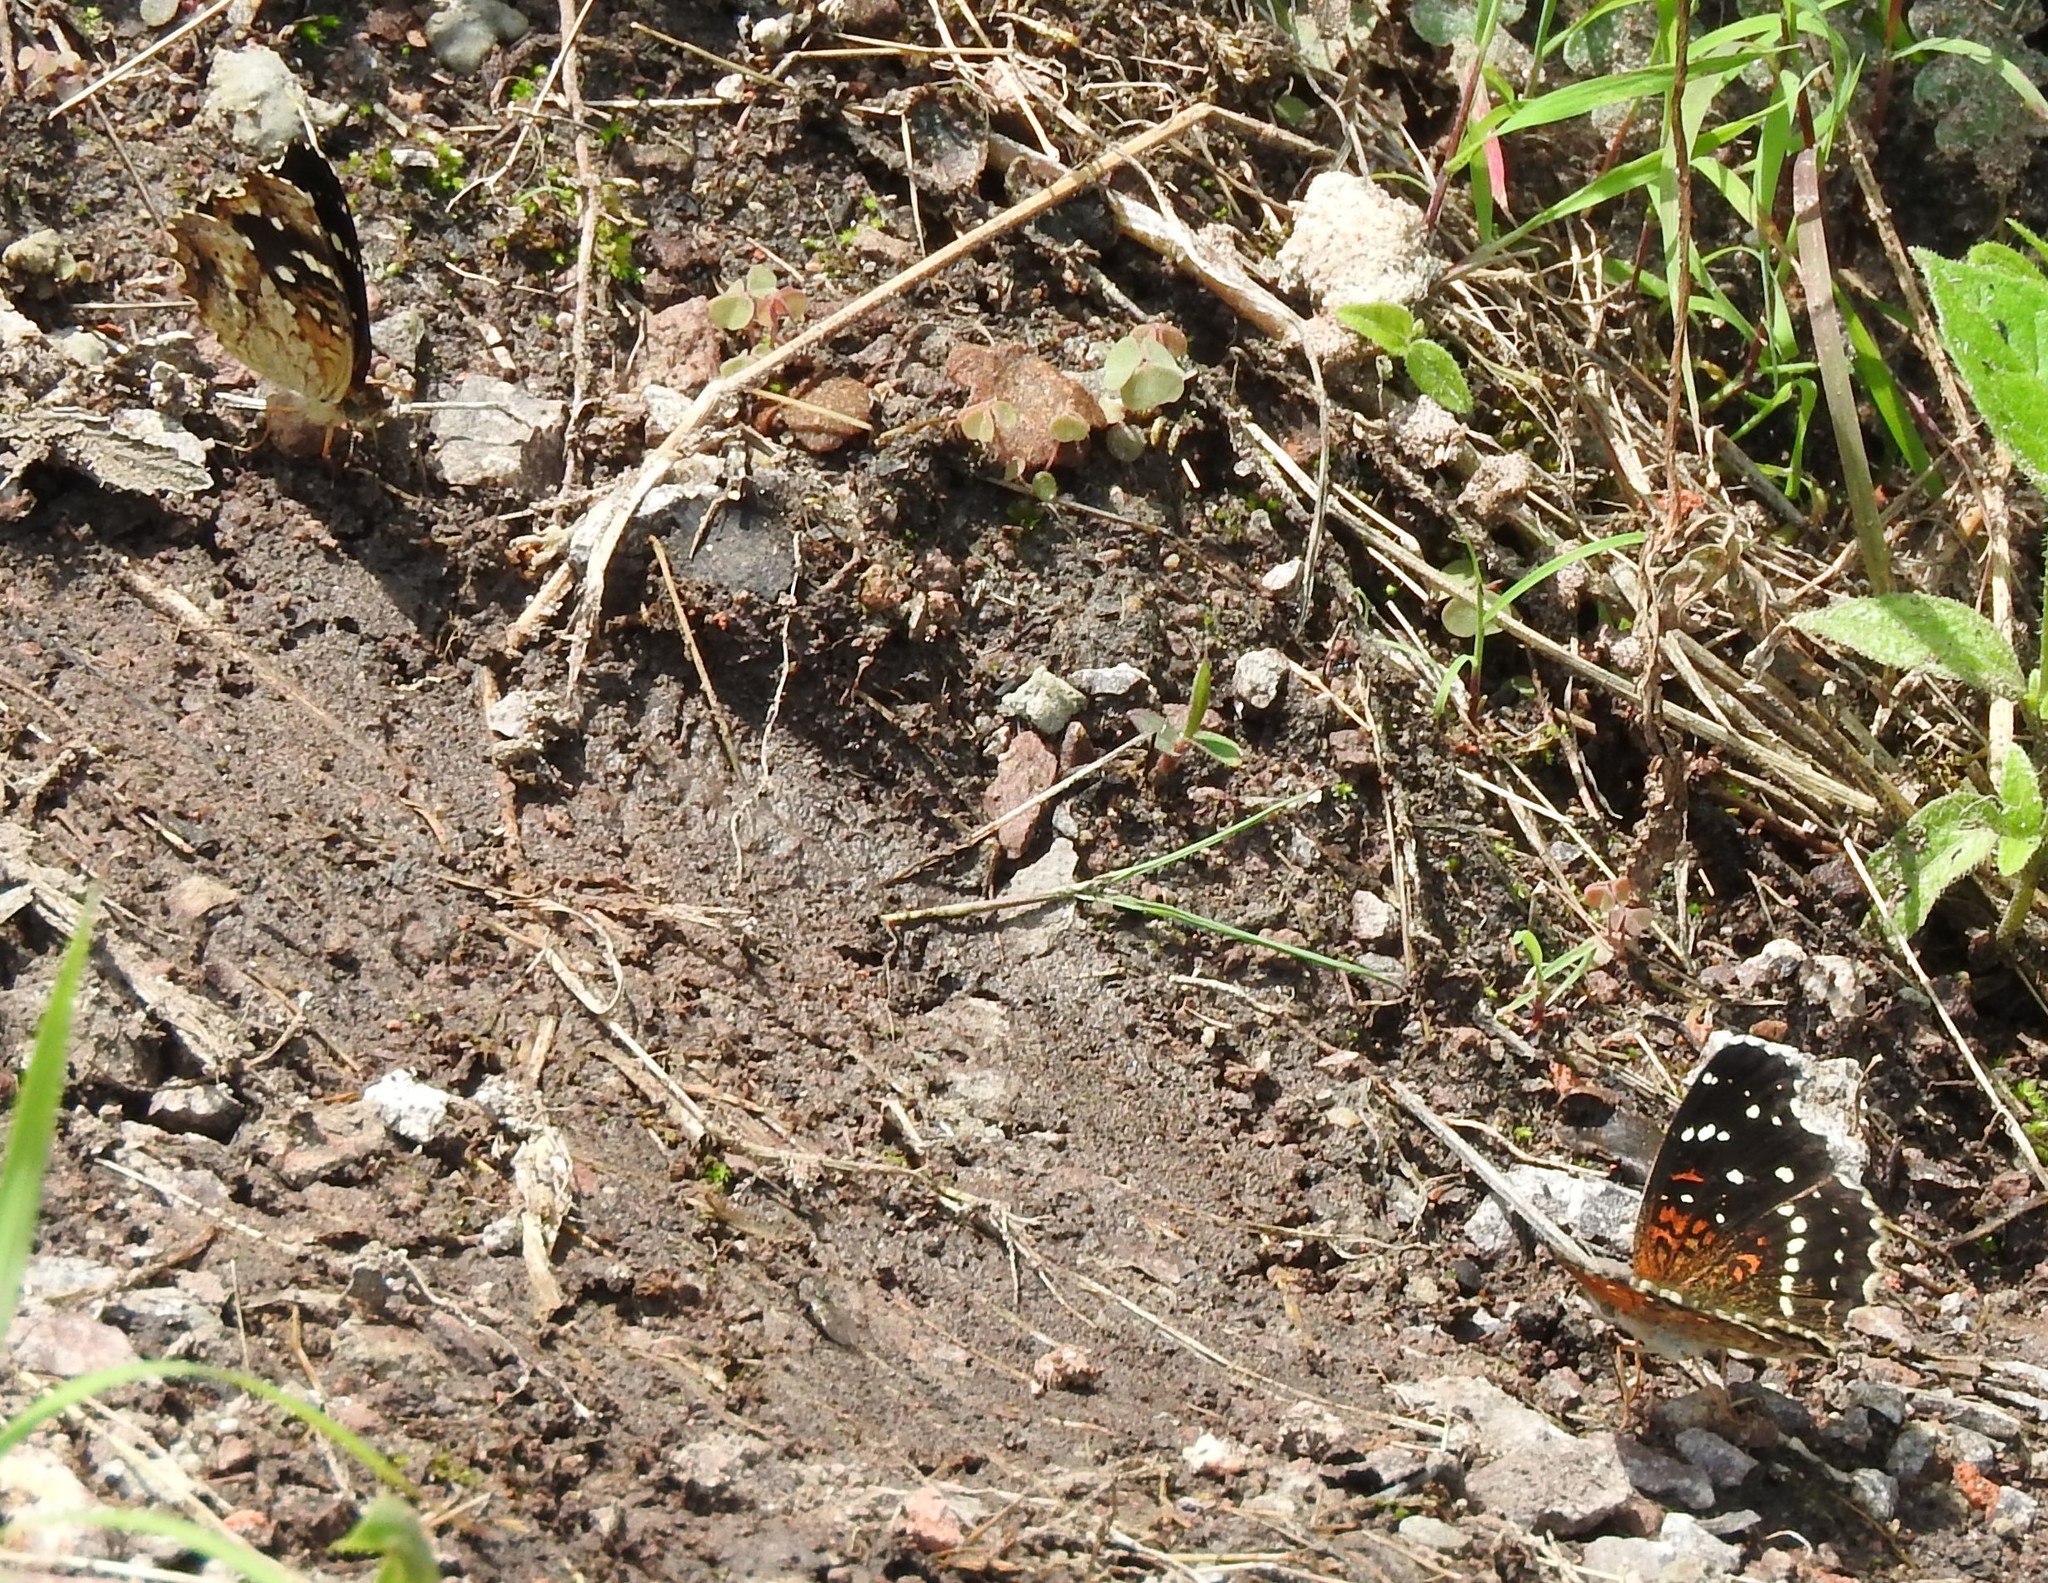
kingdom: Animalia
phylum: Arthropoda
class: Insecta
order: Lepidoptera
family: Nymphalidae
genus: Anthanassa
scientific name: Anthanassa texana
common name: Texan crescent
